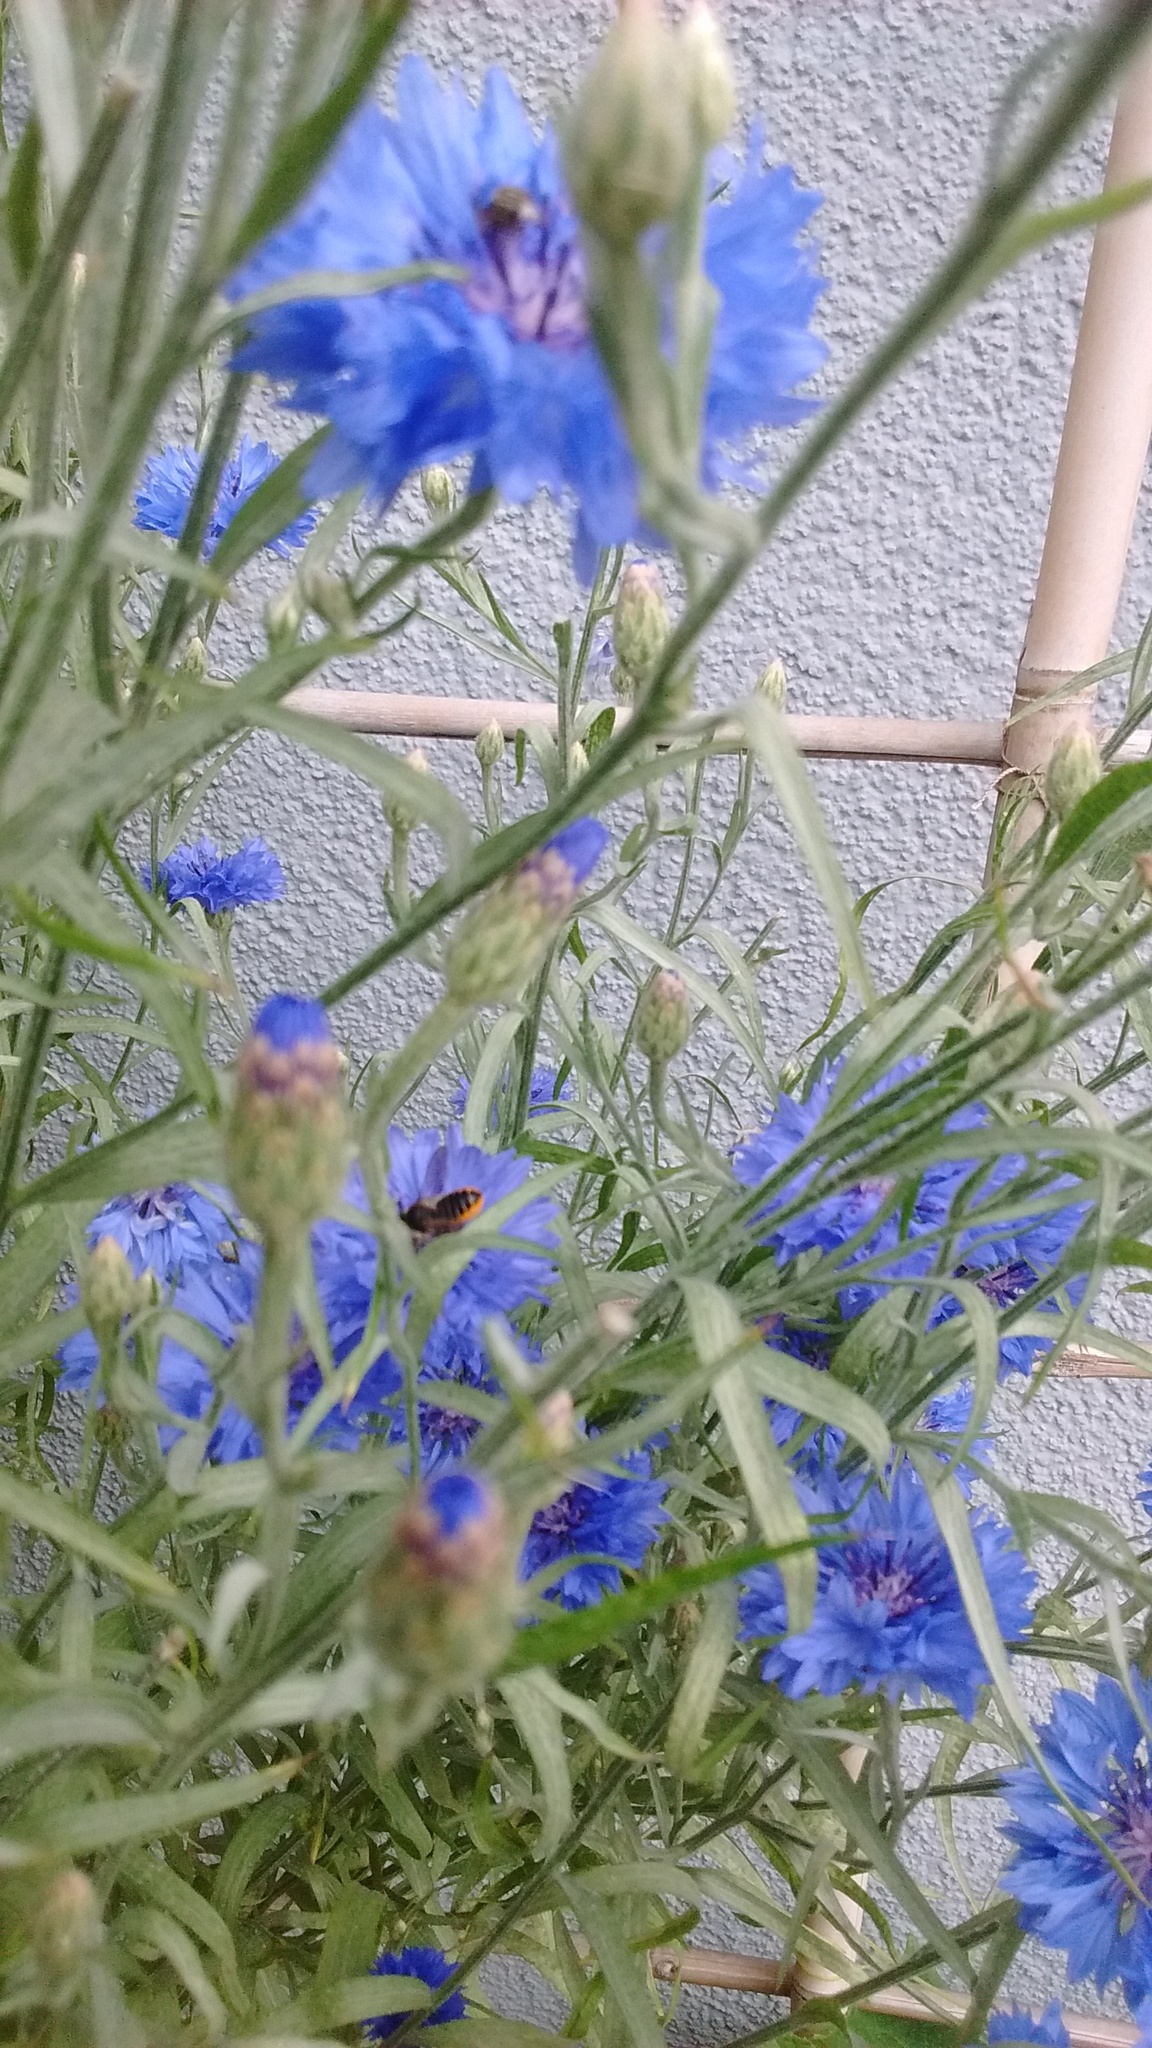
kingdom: Animalia
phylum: Arthropoda
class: Insecta
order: Hymenoptera
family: Megachilidae
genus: Megachile
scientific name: Megachile
